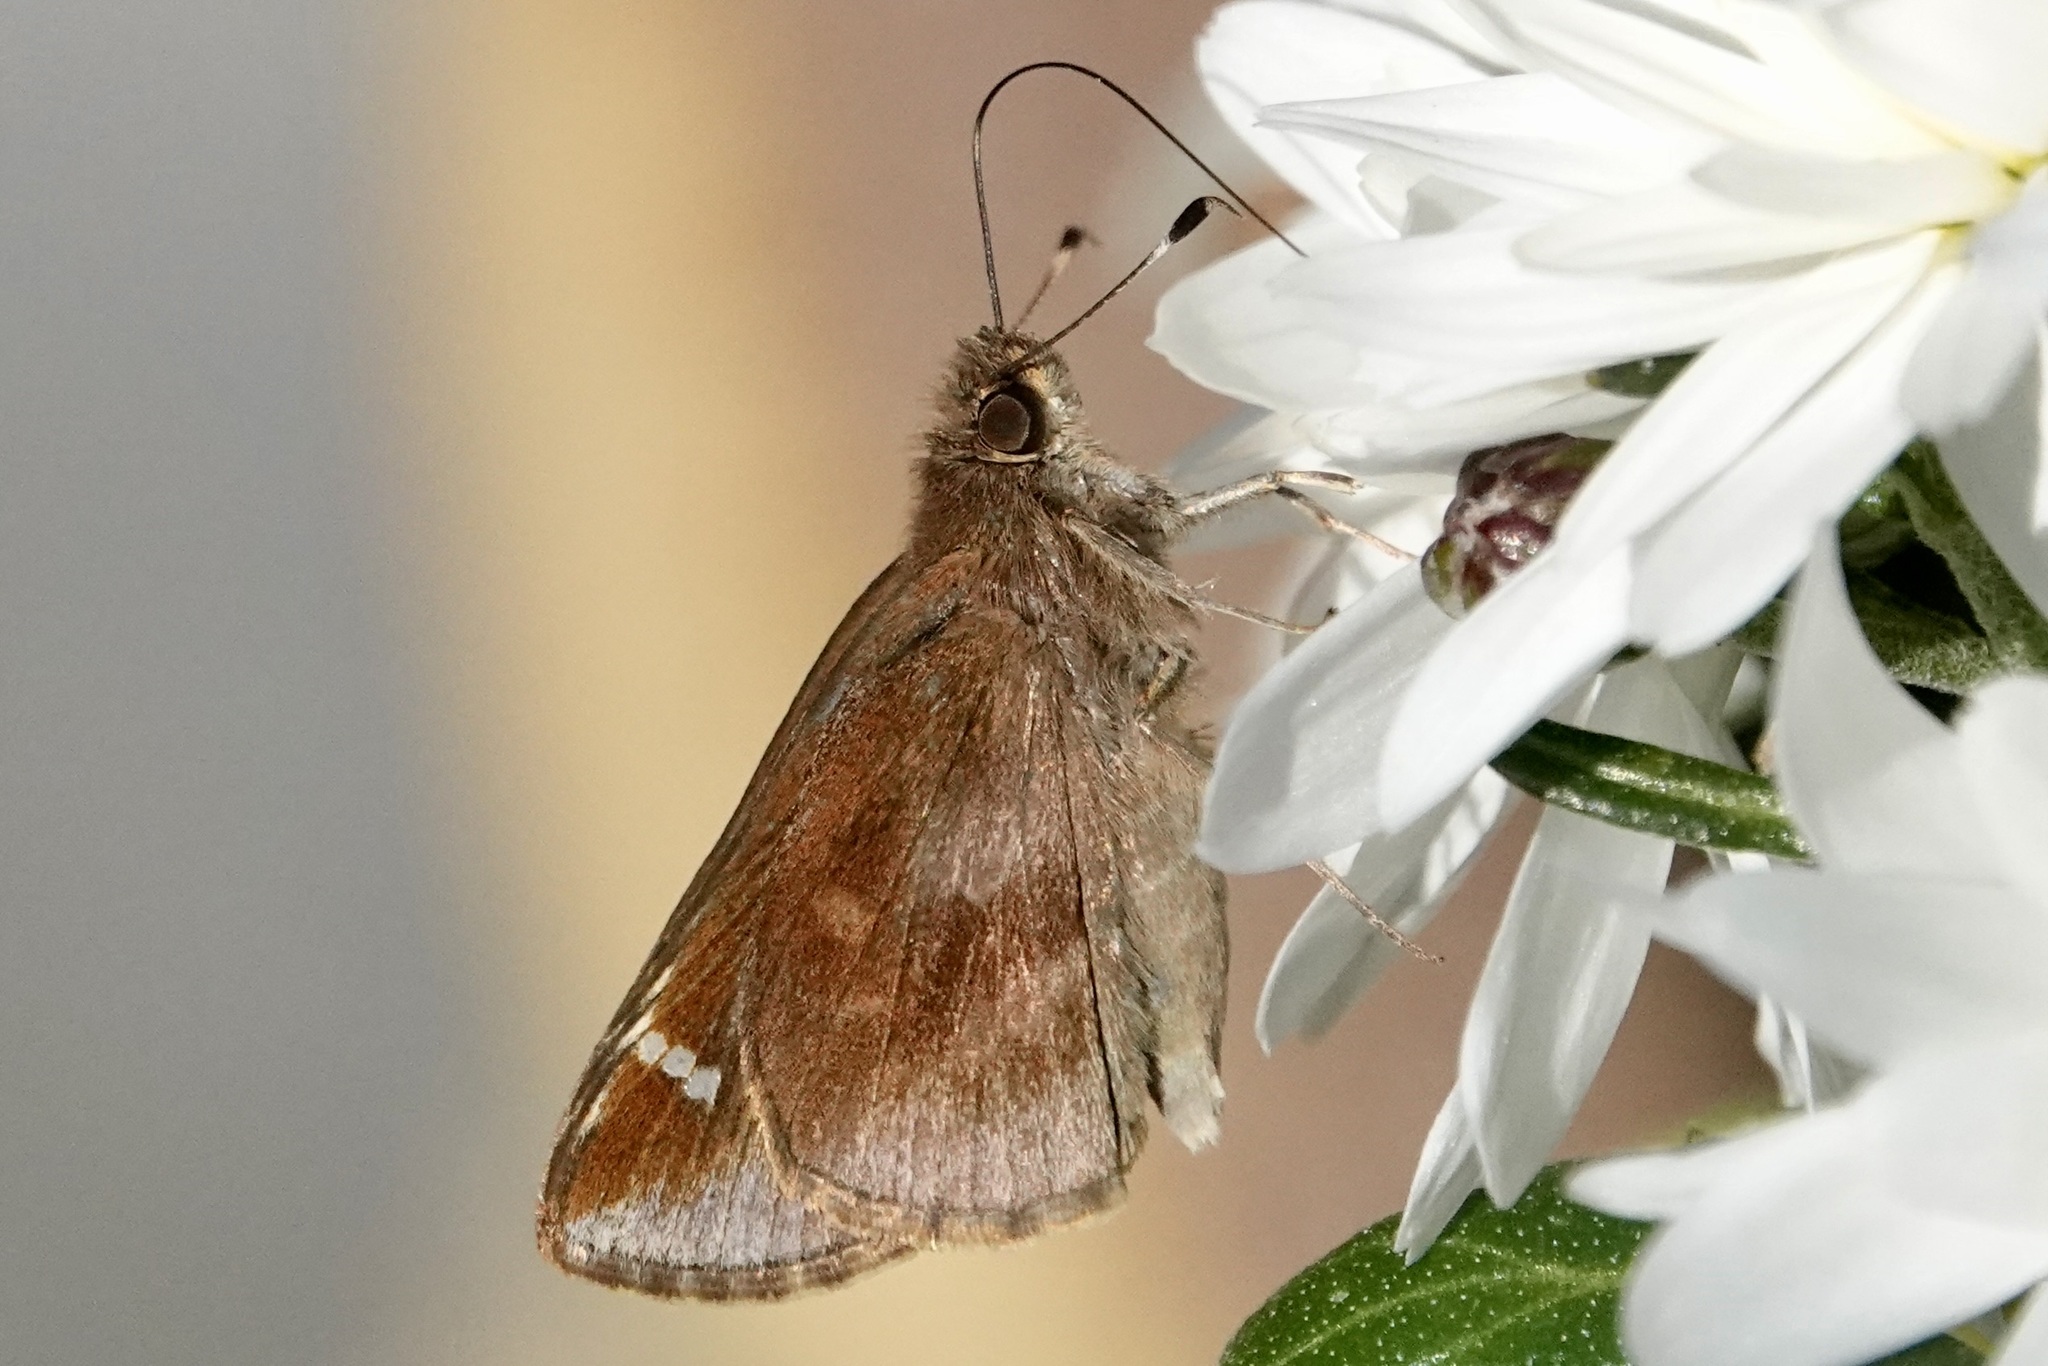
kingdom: Animalia
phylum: Arthropoda
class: Insecta
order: Lepidoptera
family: Hesperiidae
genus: Lerema
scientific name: Lerema accius
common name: Clouded skipper
